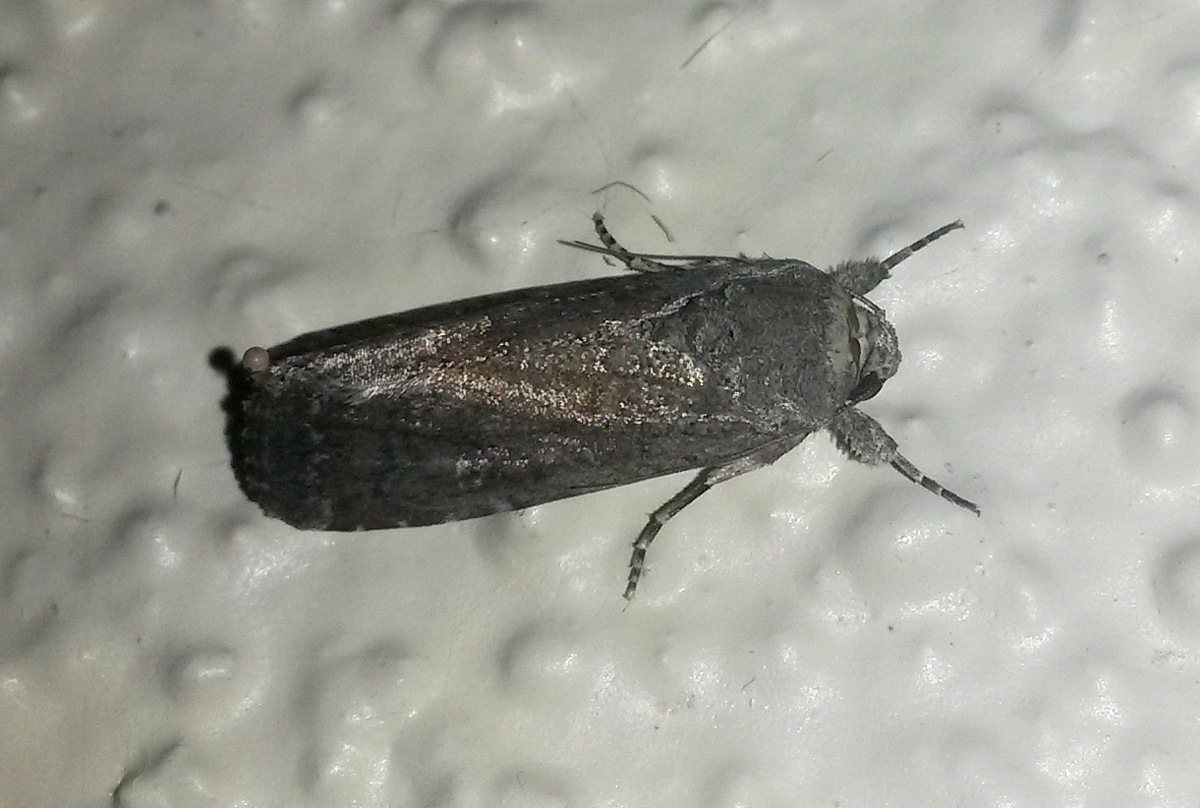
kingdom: Animalia
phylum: Arthropoda
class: Insecta
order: Lepidoptera
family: Noctuidae
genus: Spodoptera
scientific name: Spodoptera frugiperda
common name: Fall armyworm
